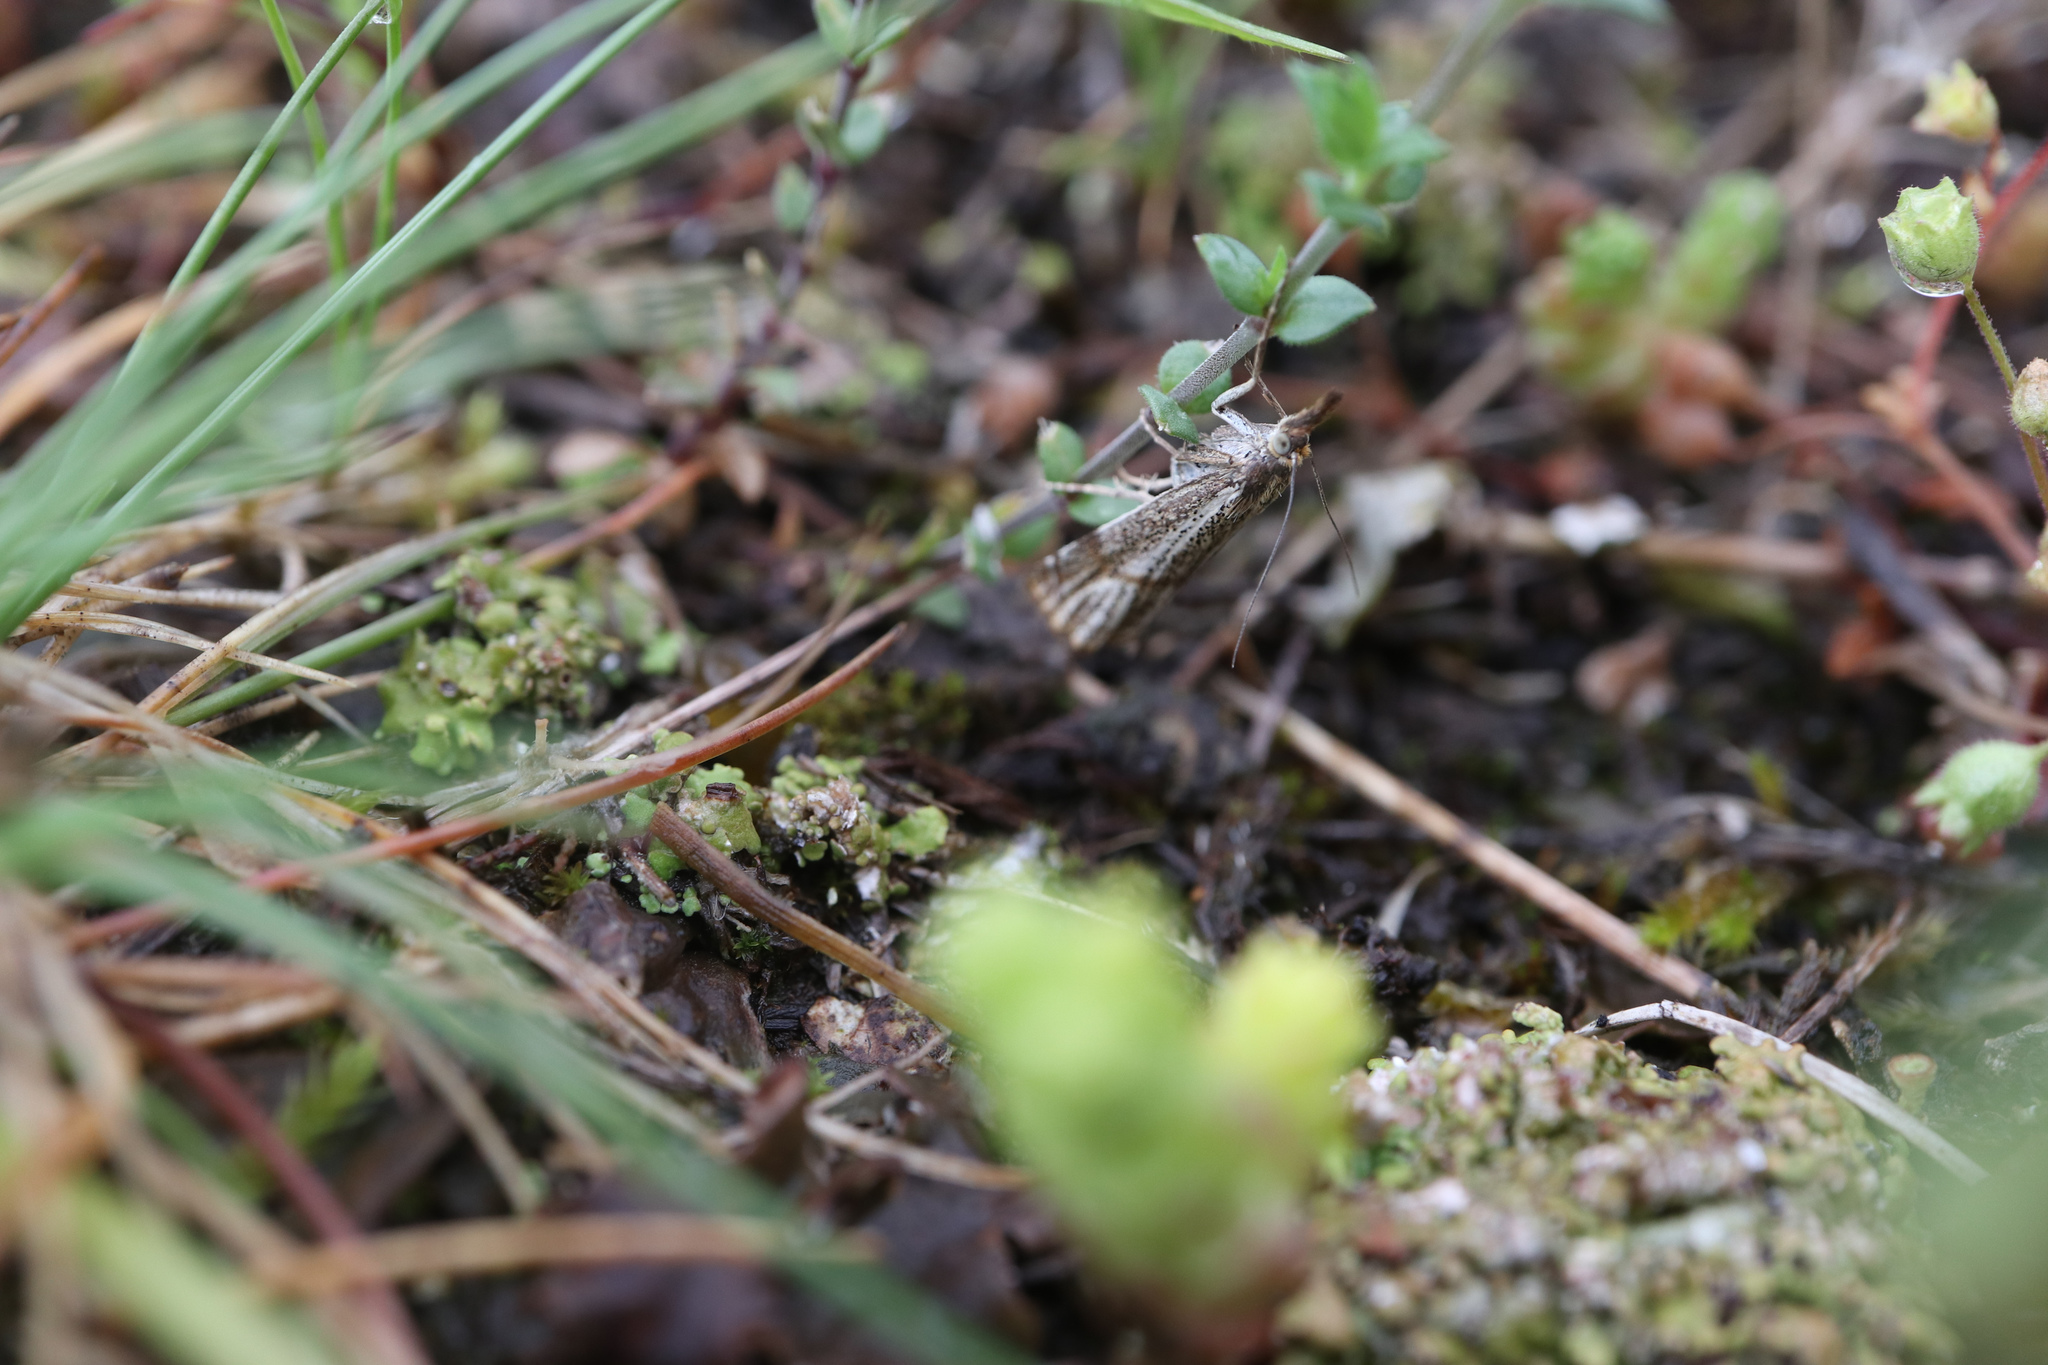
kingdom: Animalia
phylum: Arthropoda
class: Insecta
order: Lepidoptera
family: Crambidae
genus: Thisanotia
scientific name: Thisanotia chrysonuchella
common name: Powdered grass-veneer
